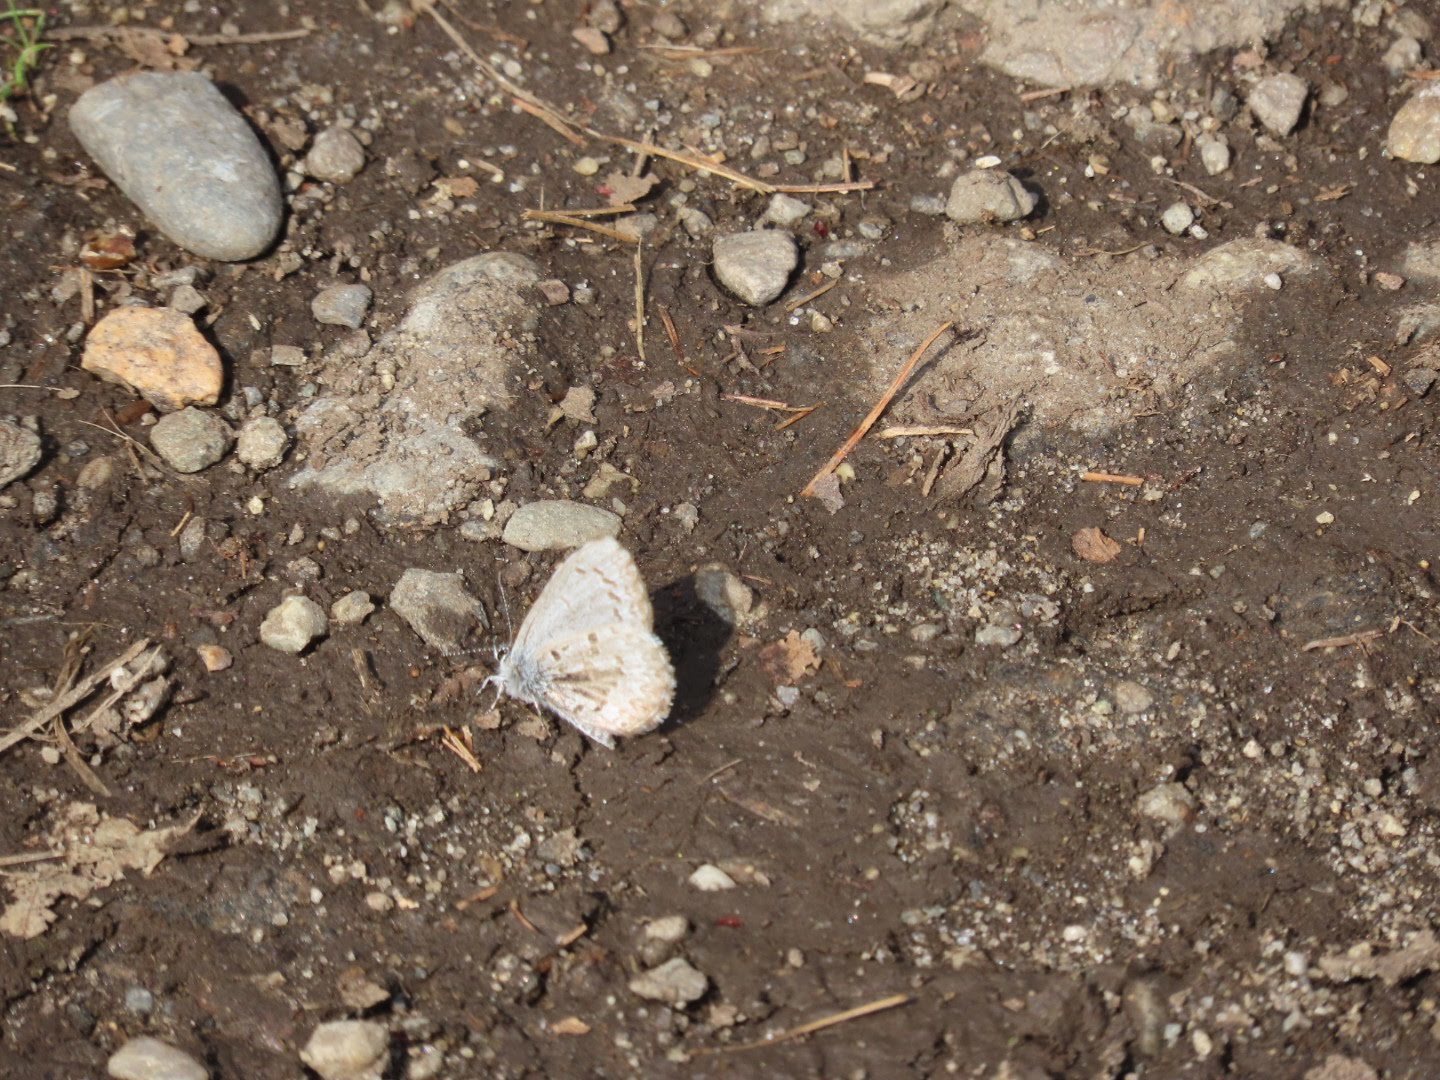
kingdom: Animalia
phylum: Arthropoda
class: Insecta
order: Lepidoptera
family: Lycaenidae
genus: Celastrina
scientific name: Celastrina ladon
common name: Spring azure
